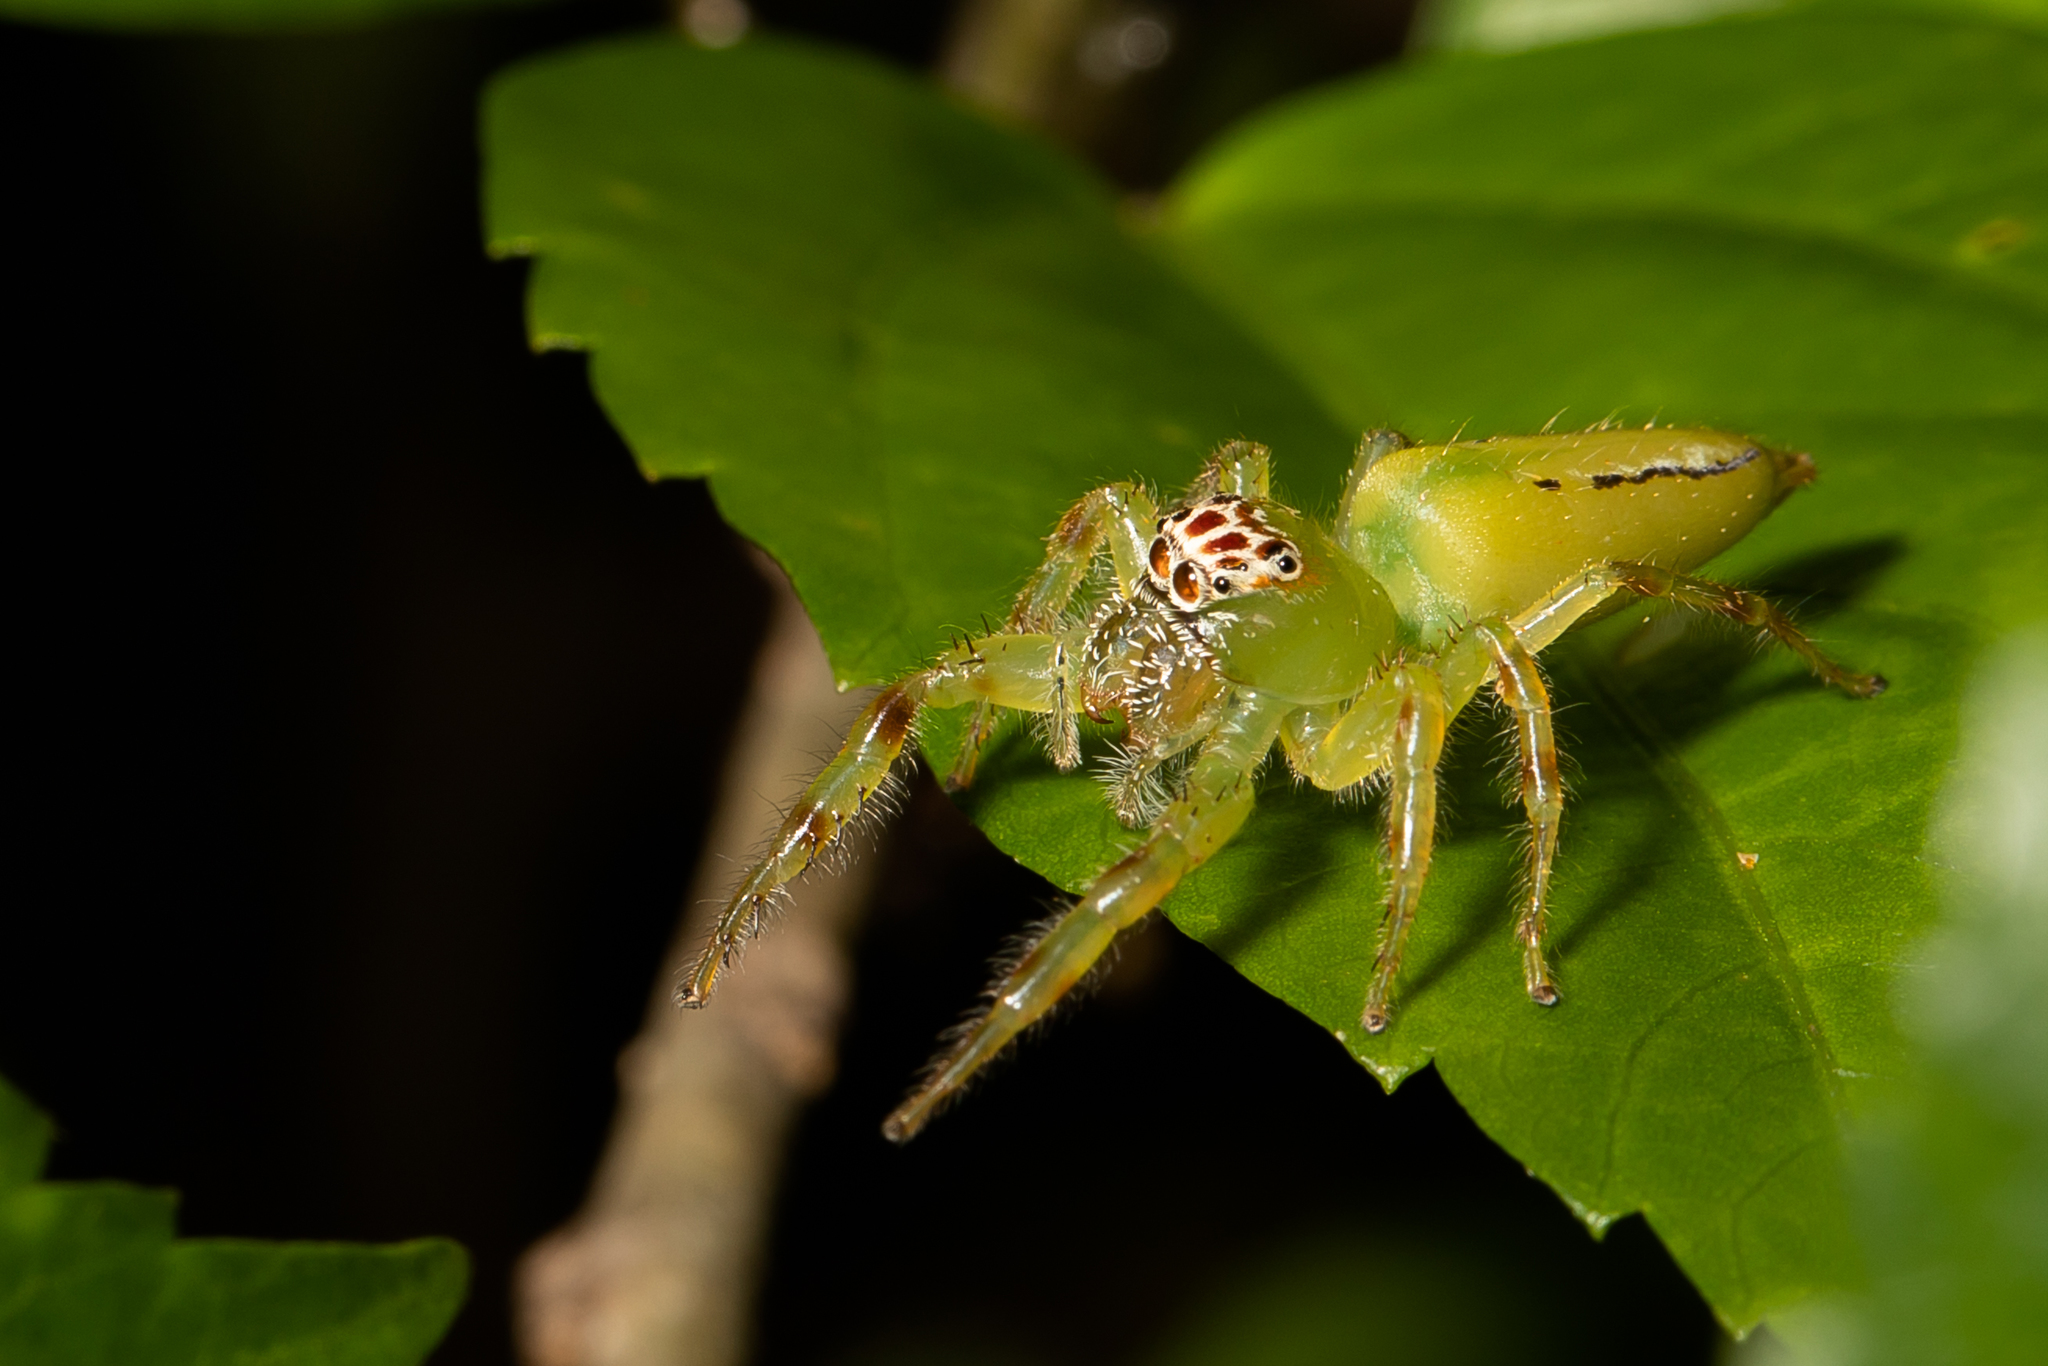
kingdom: Animalia
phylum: Arthropoda
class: Arachnida
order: Araneae
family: Salticidae
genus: Mopsus
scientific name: Mopsus mormon
